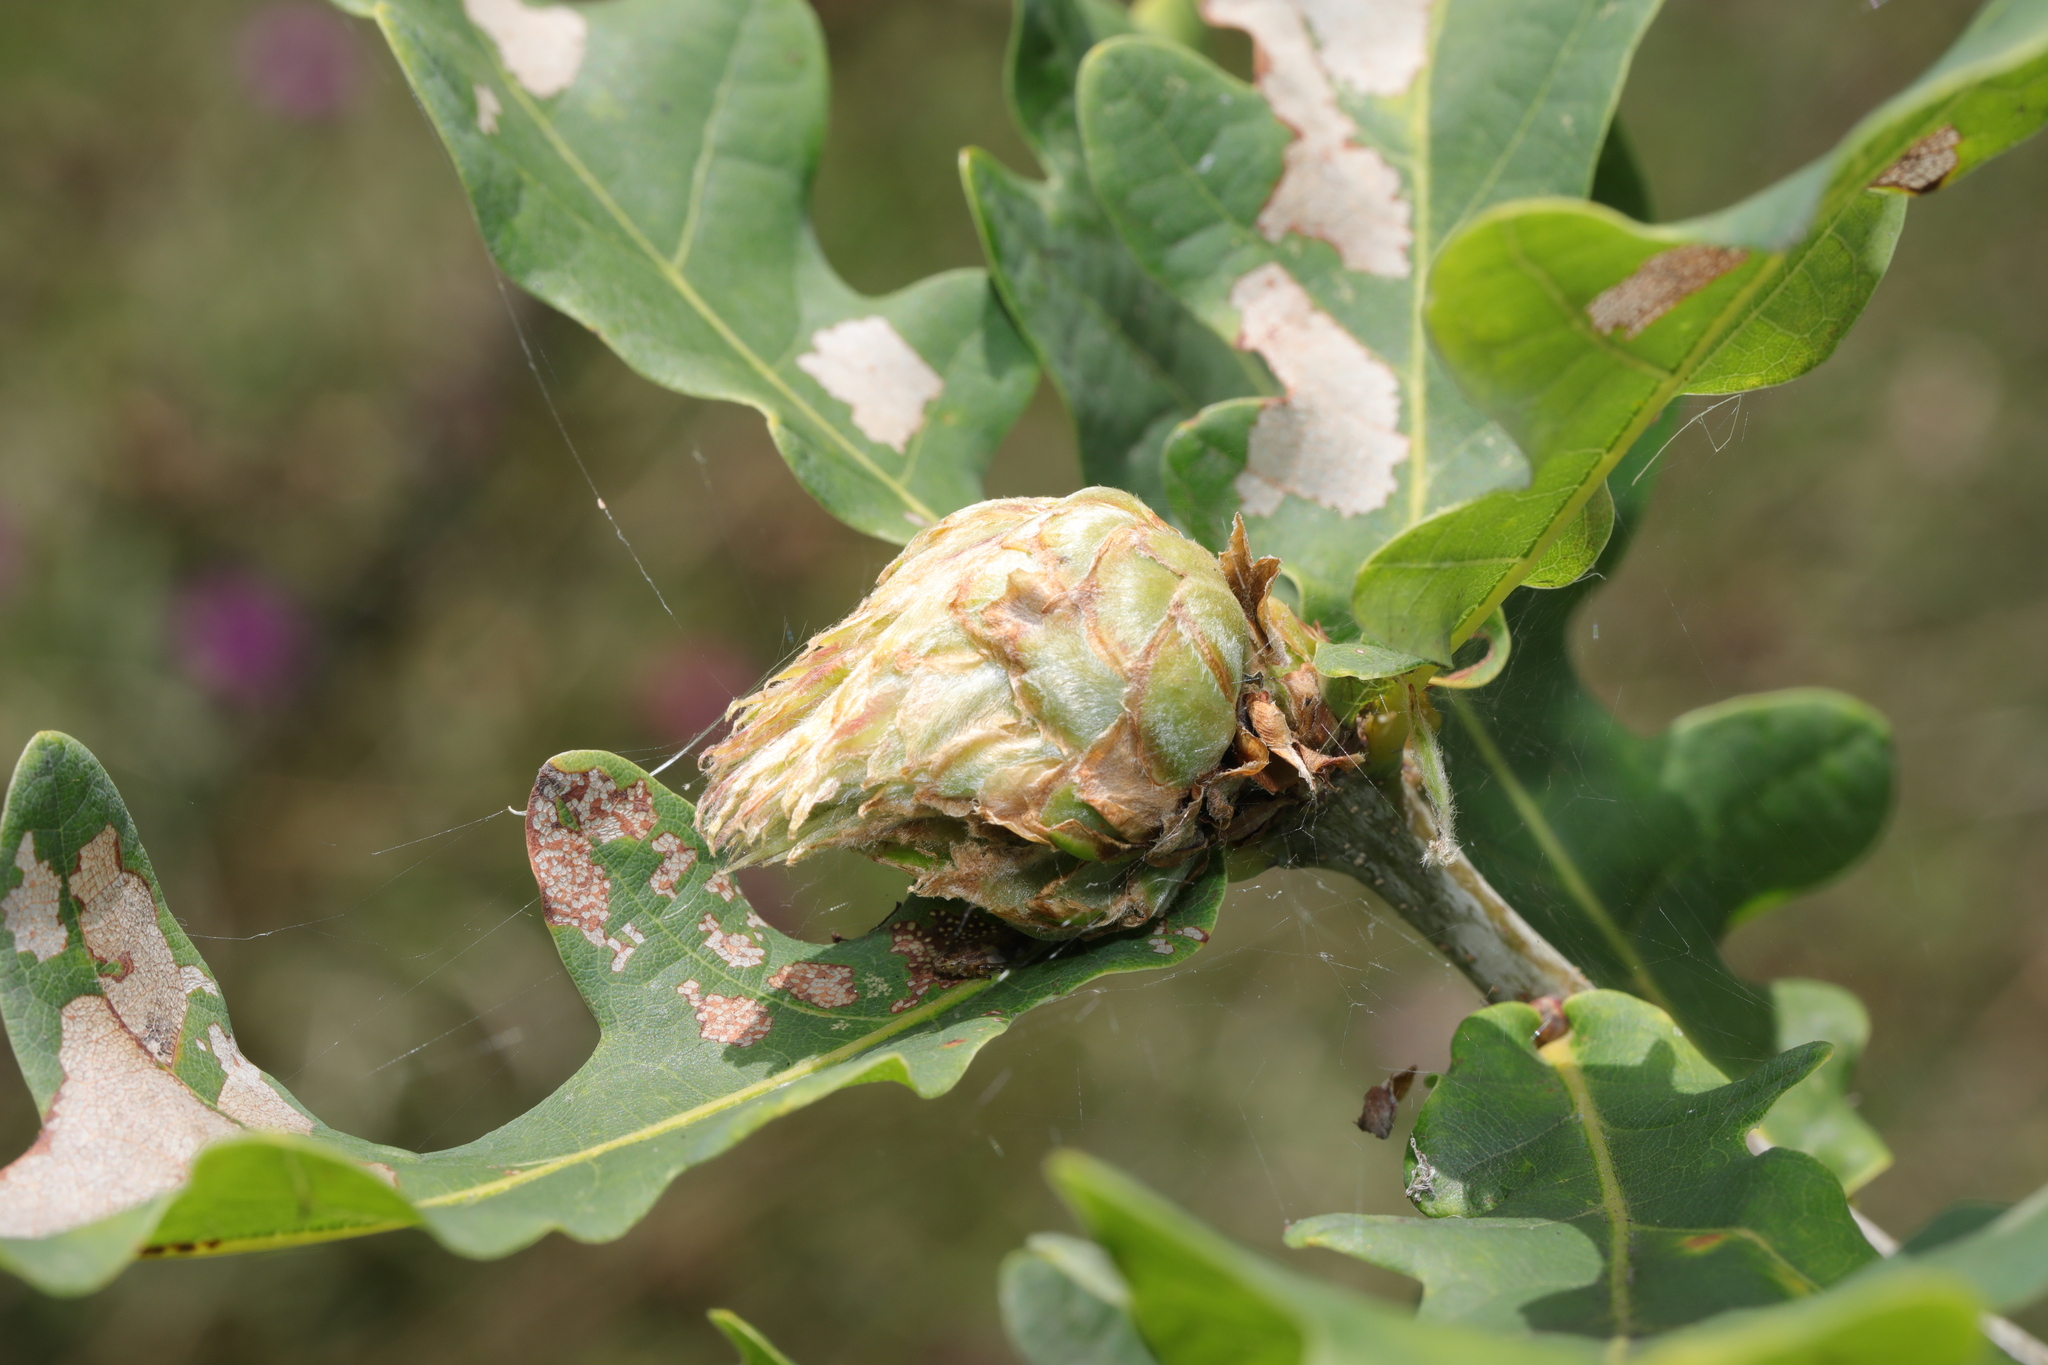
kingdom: Animalia
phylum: Arthropoda
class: Insecta
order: Hymenoptera
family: Cynipidae
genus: Andricus
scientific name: Andricus foecundatrix
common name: Artichoke gall
